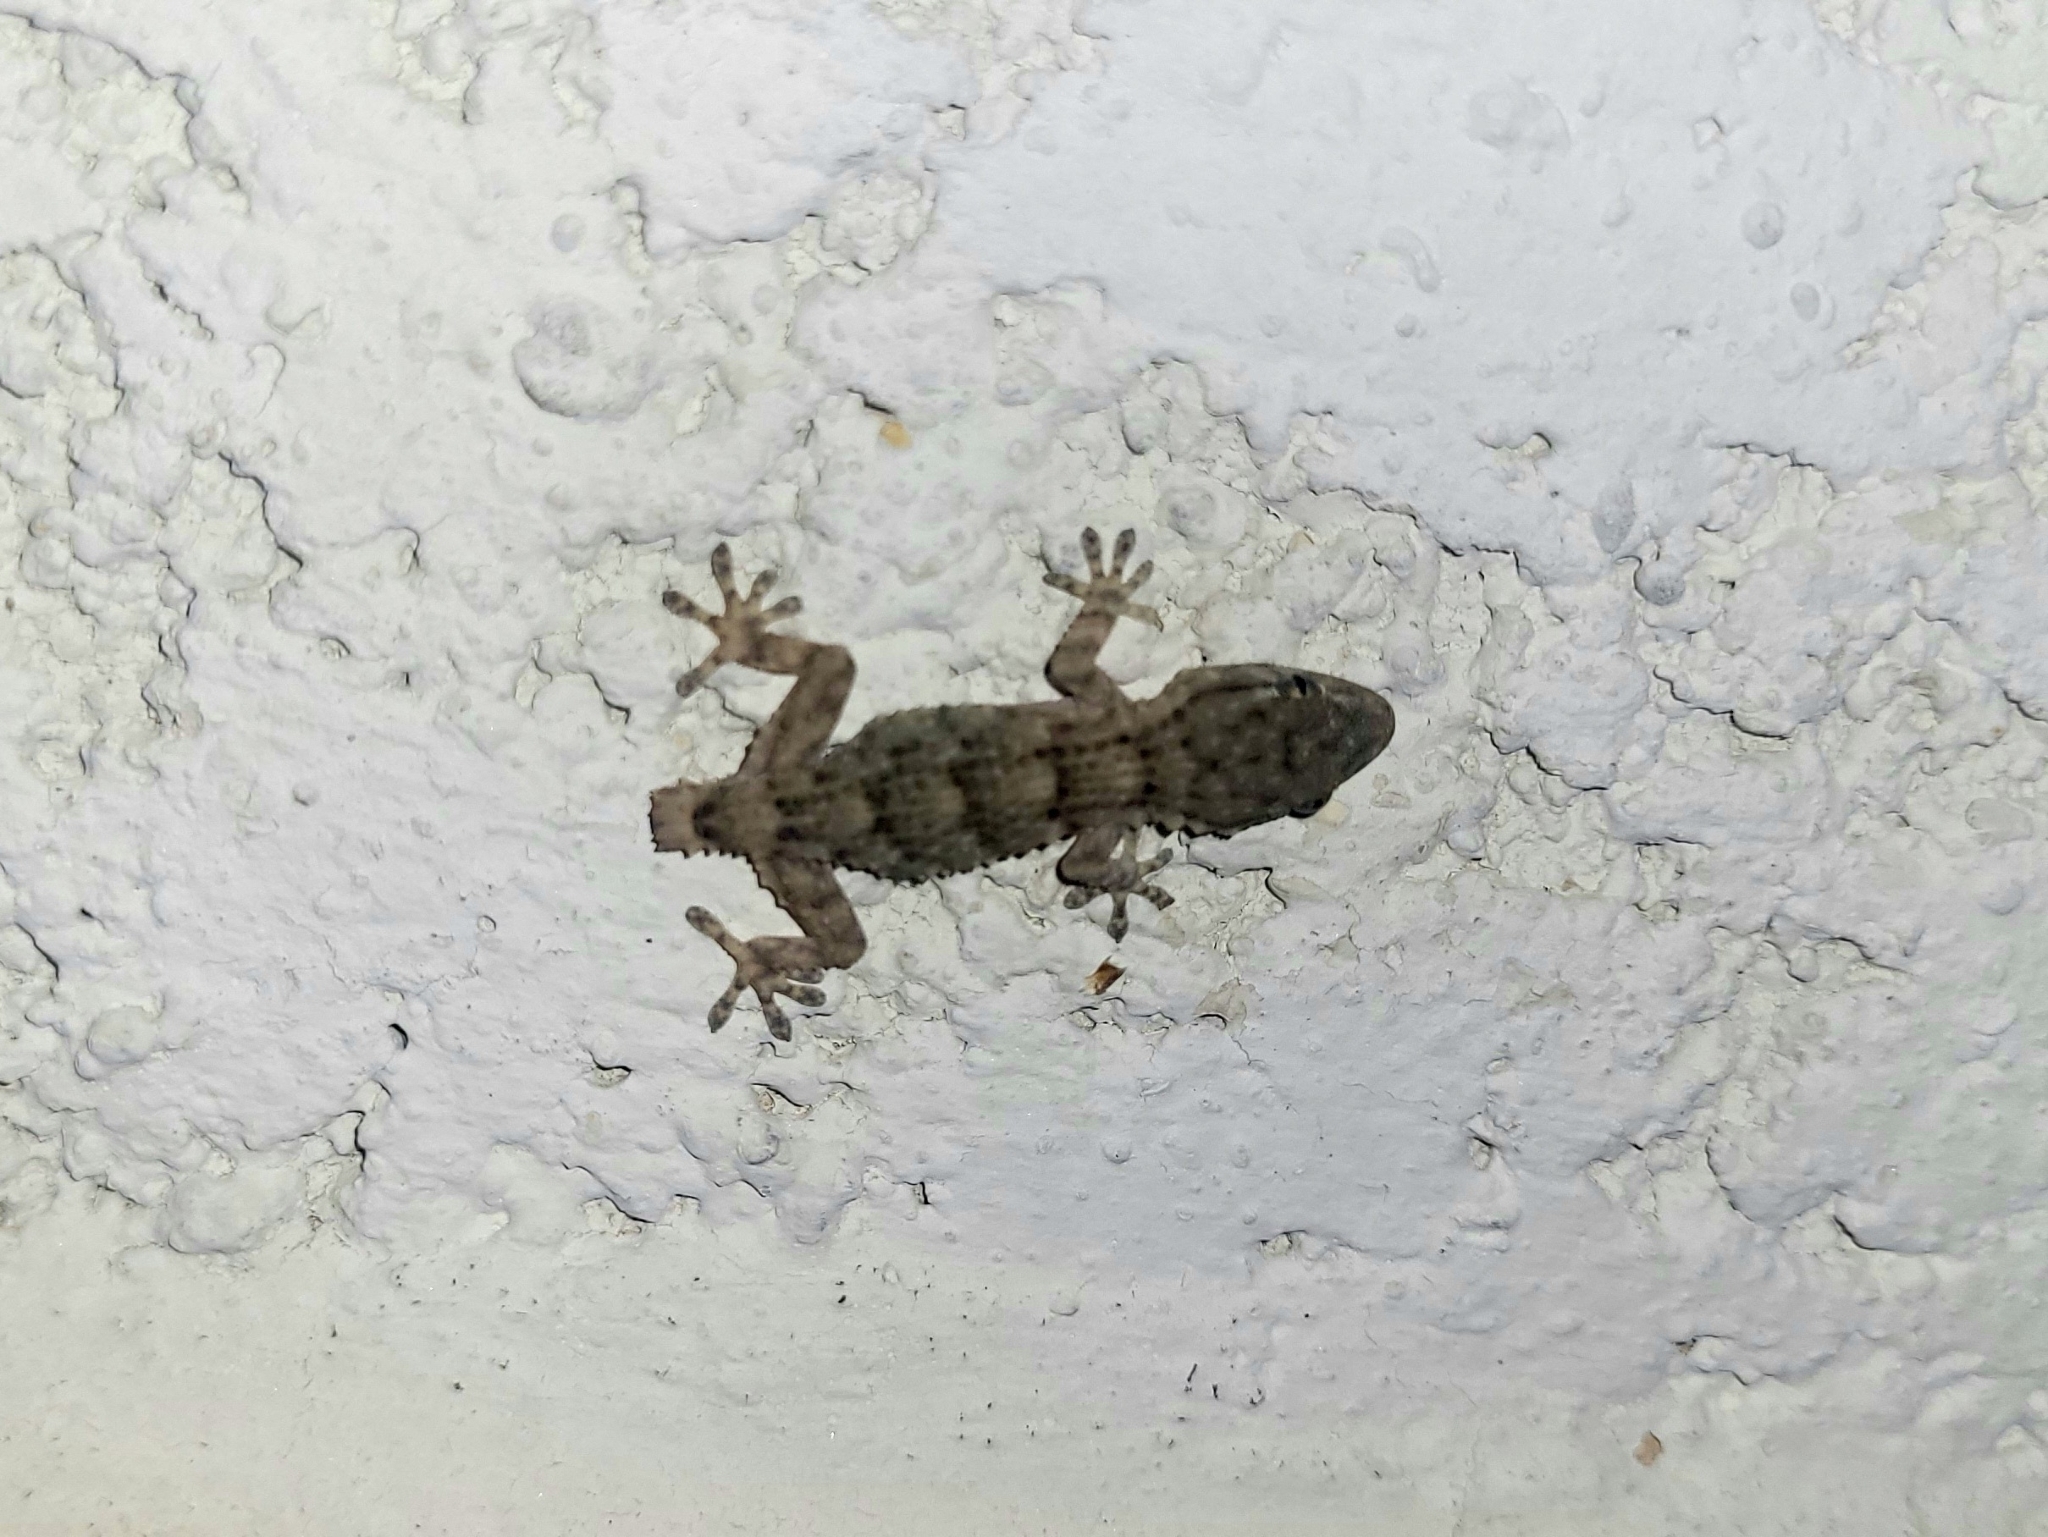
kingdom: Animalia
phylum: Chordata
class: Squamata
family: Phyllodactylidae
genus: Tarentola
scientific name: Tarentola mauritanica
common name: Moorish gecko
